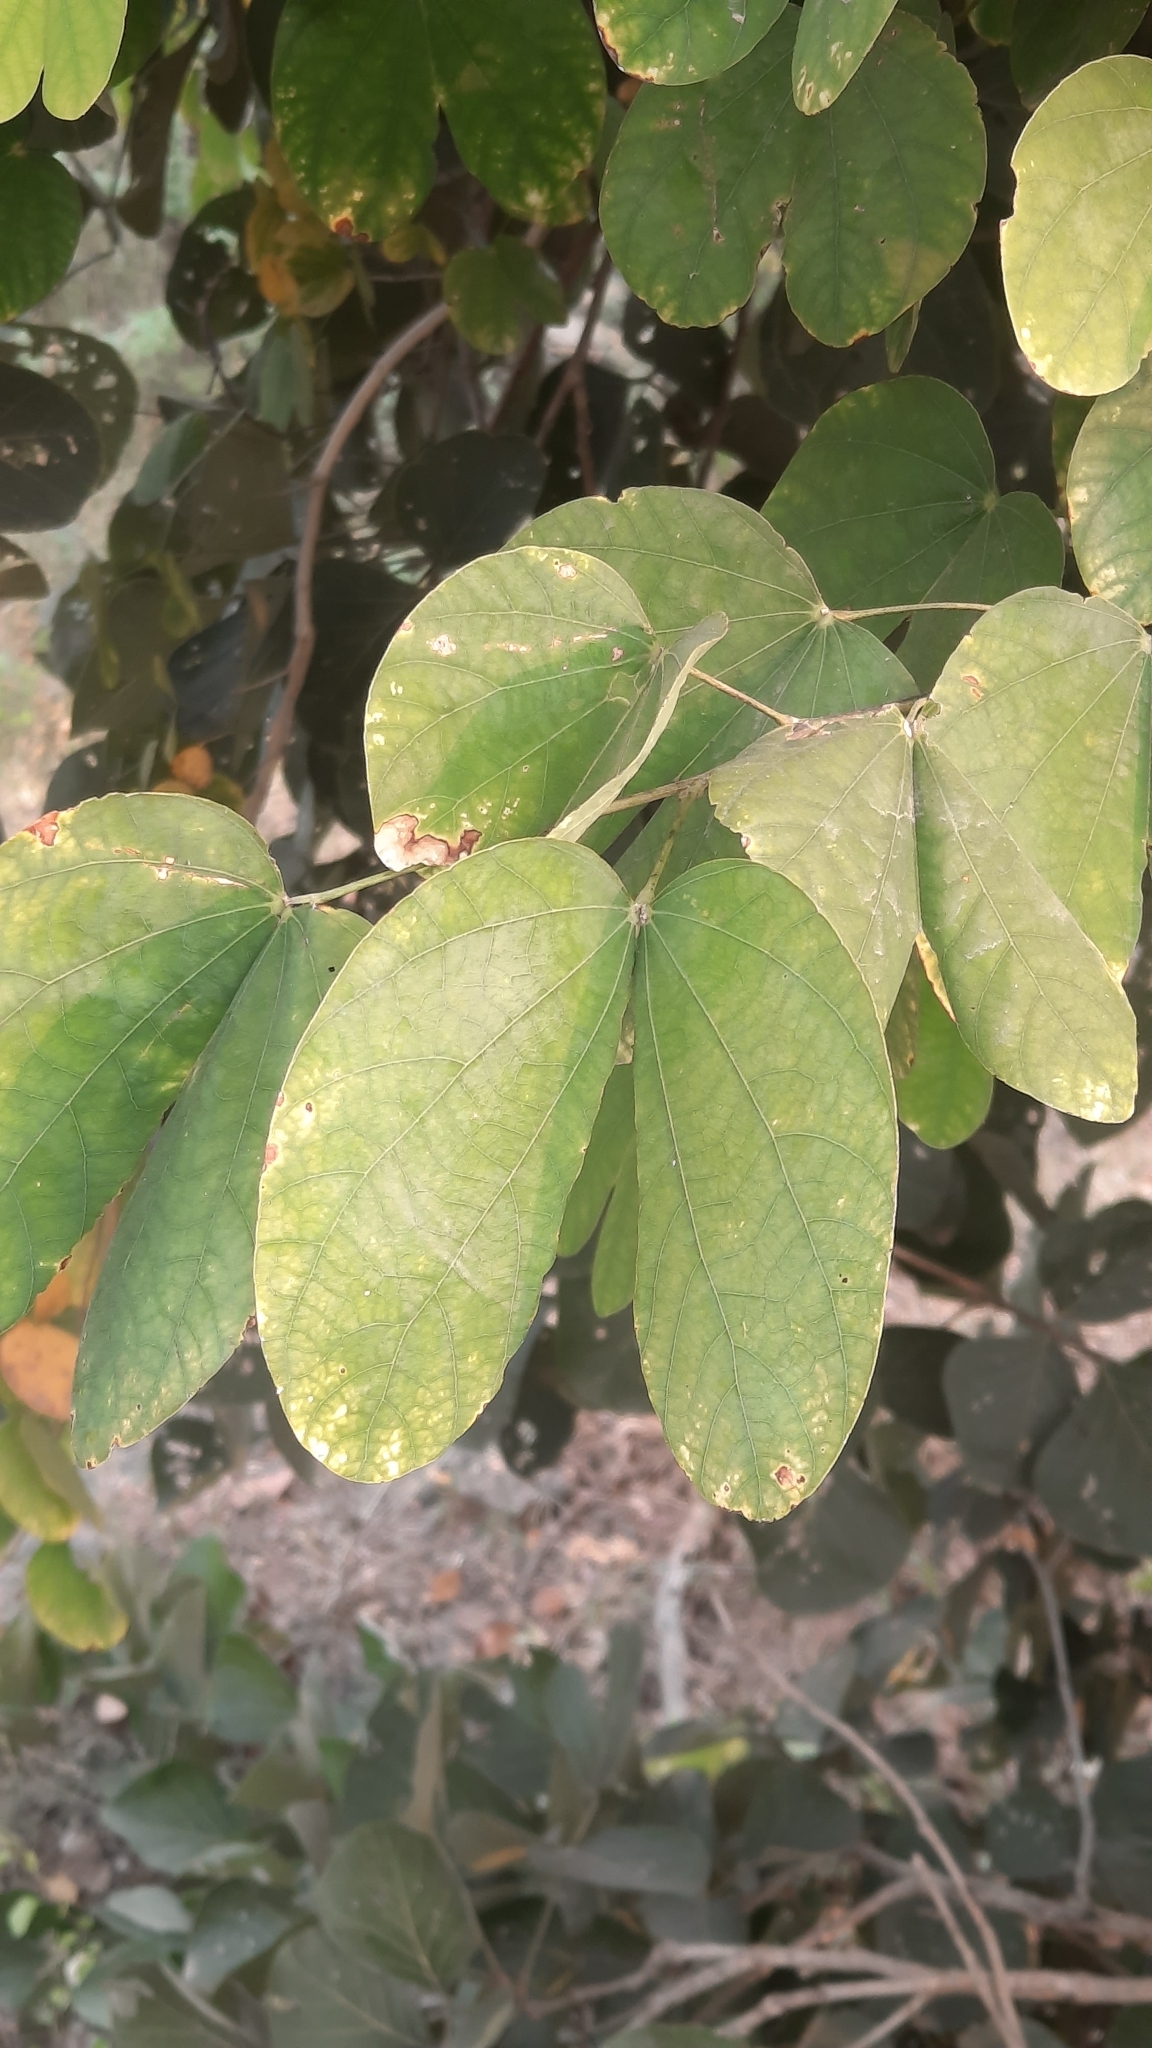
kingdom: Plantae
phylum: Tracheophyta
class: Magnoliopsida
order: Fabales
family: Fabaceae
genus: Bauhinia
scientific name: Bauhinia purpurea
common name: Butterfly-tree
